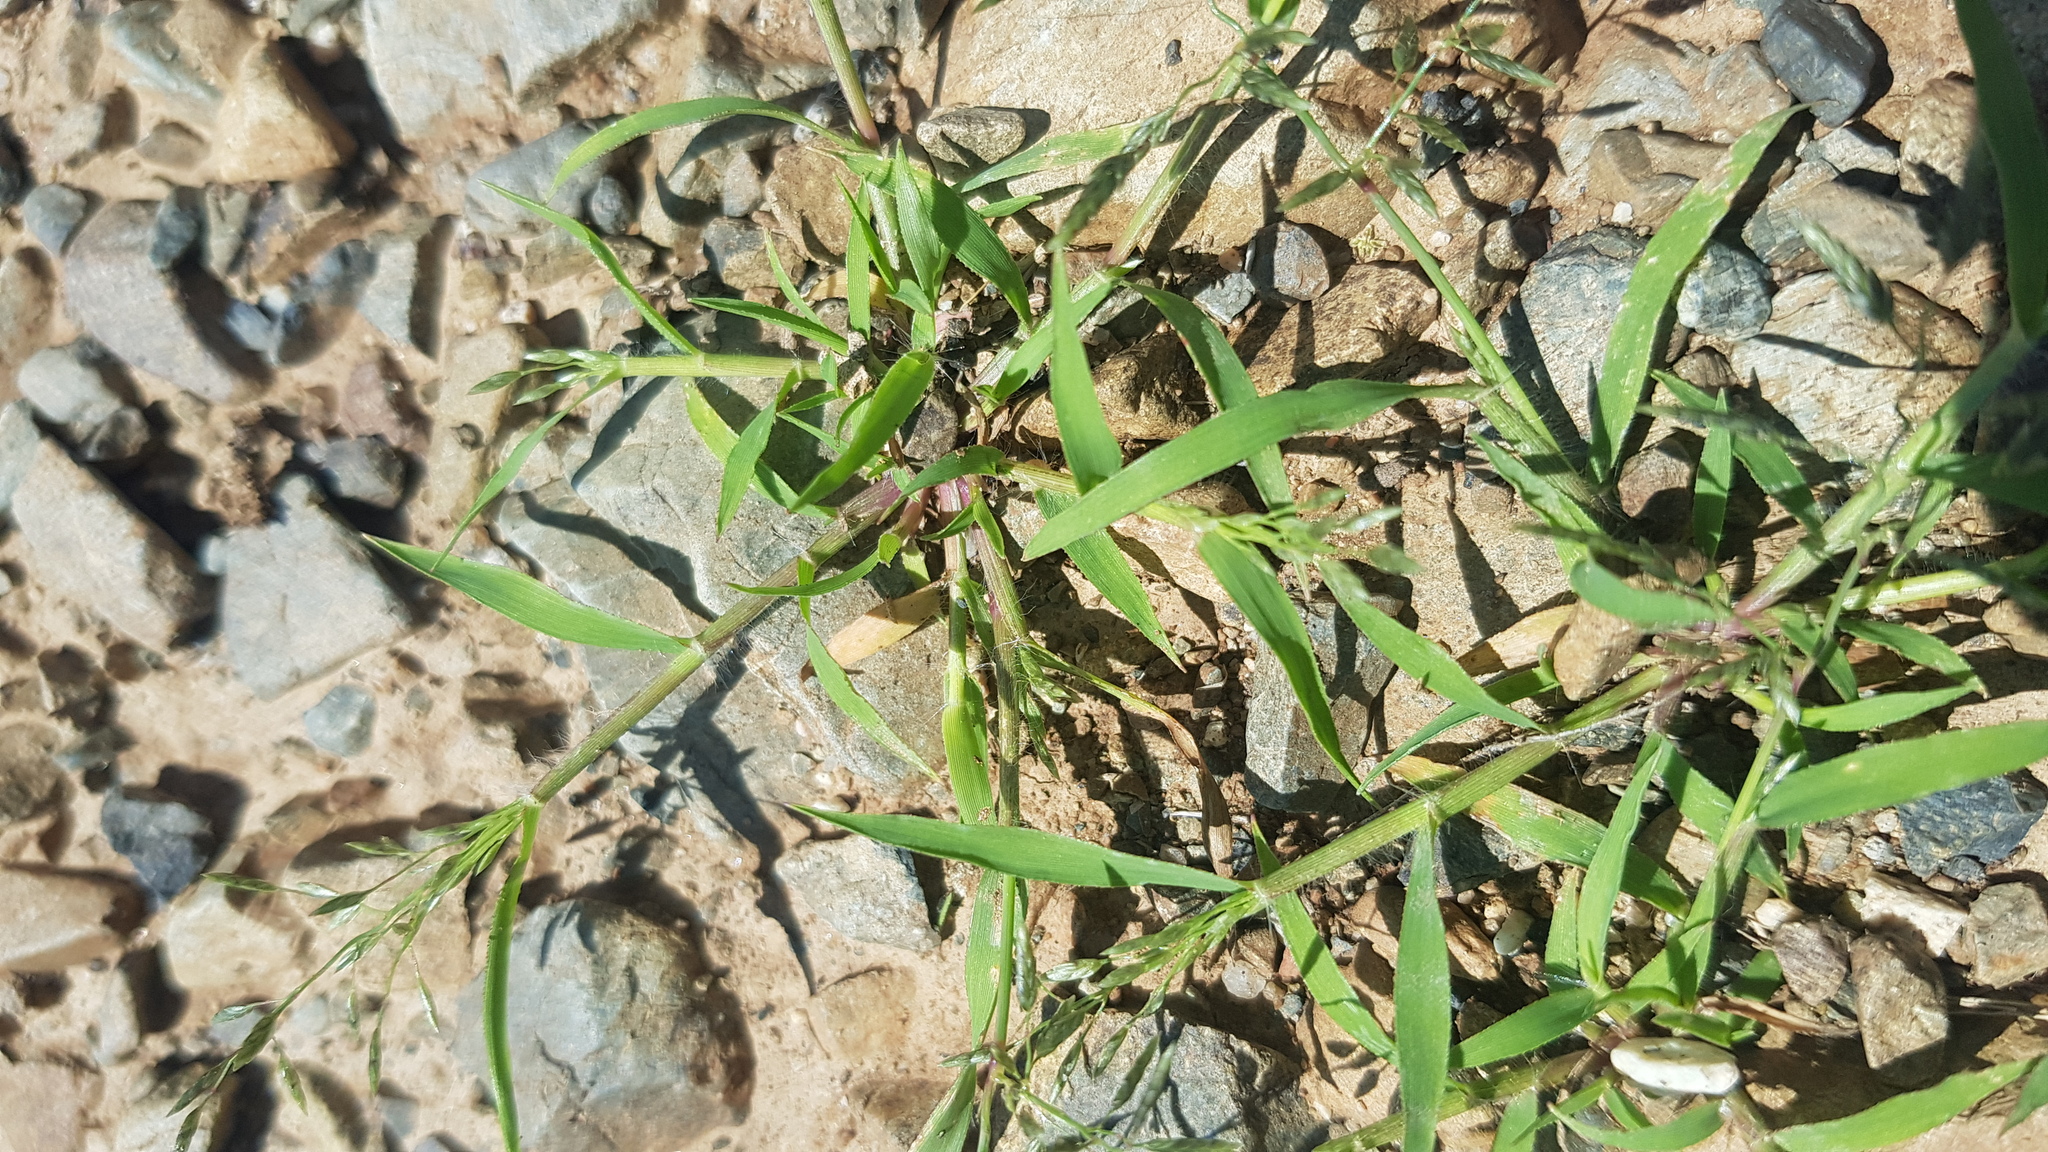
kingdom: Plantae
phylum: Tracheophyta
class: Liliopsida
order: Poales
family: Poaceae
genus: Eragrostis
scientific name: Eragrostis minor
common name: Small love-grass
